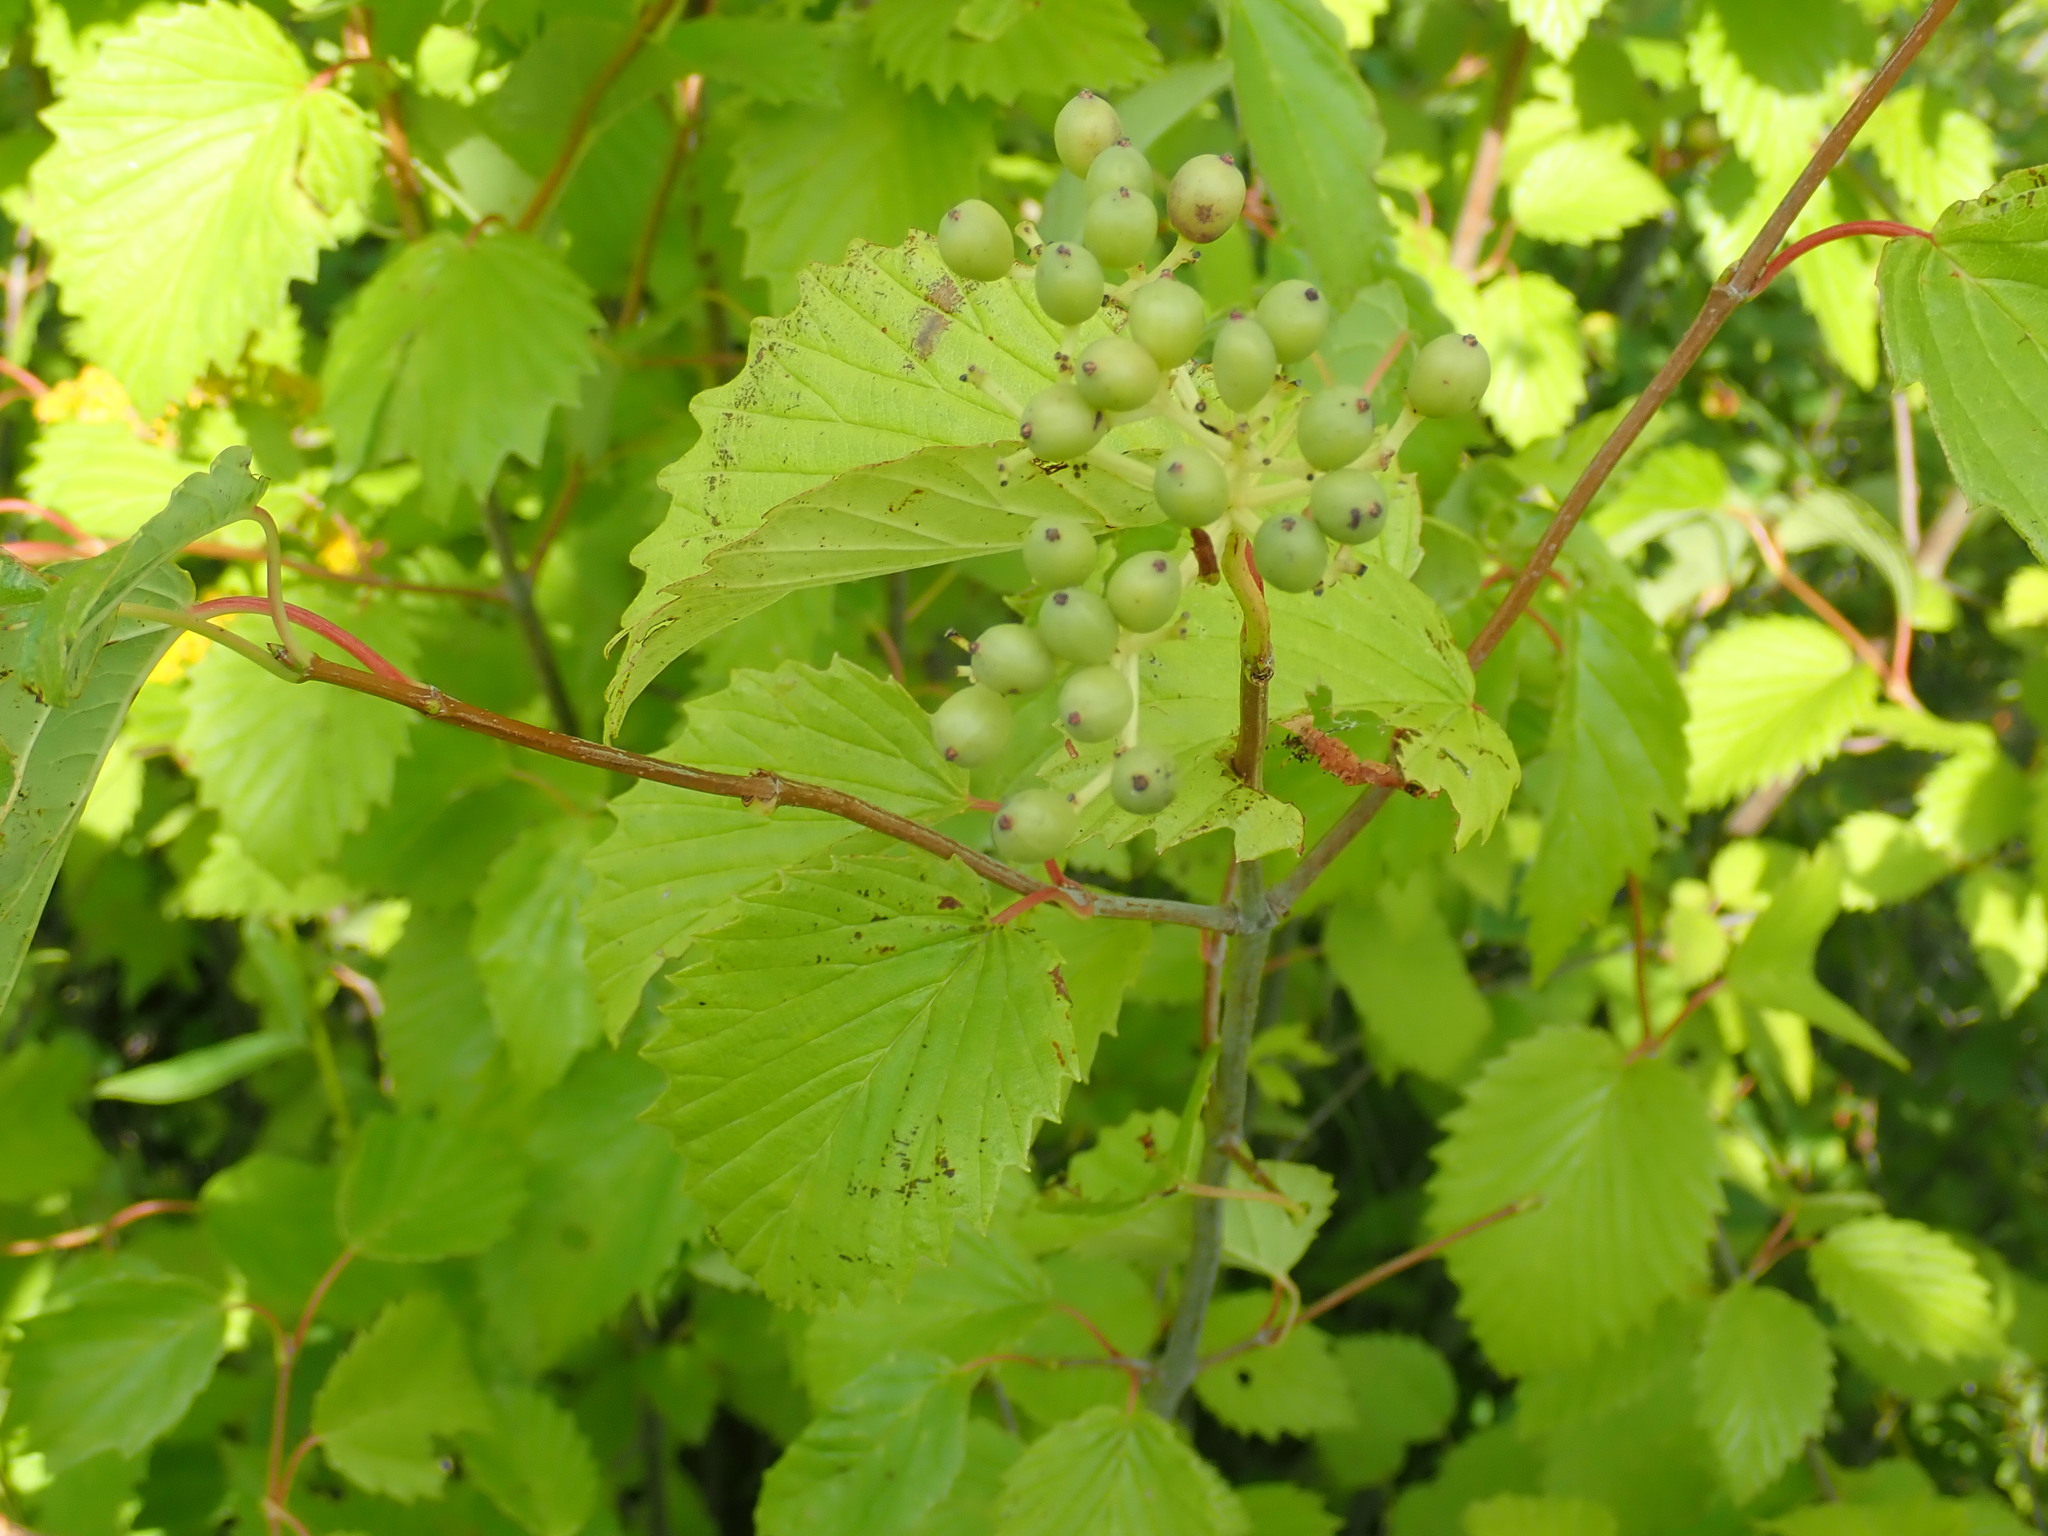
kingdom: Plantae
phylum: Tracheophyta
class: Magnoliopsida
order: Dipsacales
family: Viburnaceae
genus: Viburnum
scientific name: Viburnum recognitum
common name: Northern arrow-wood
